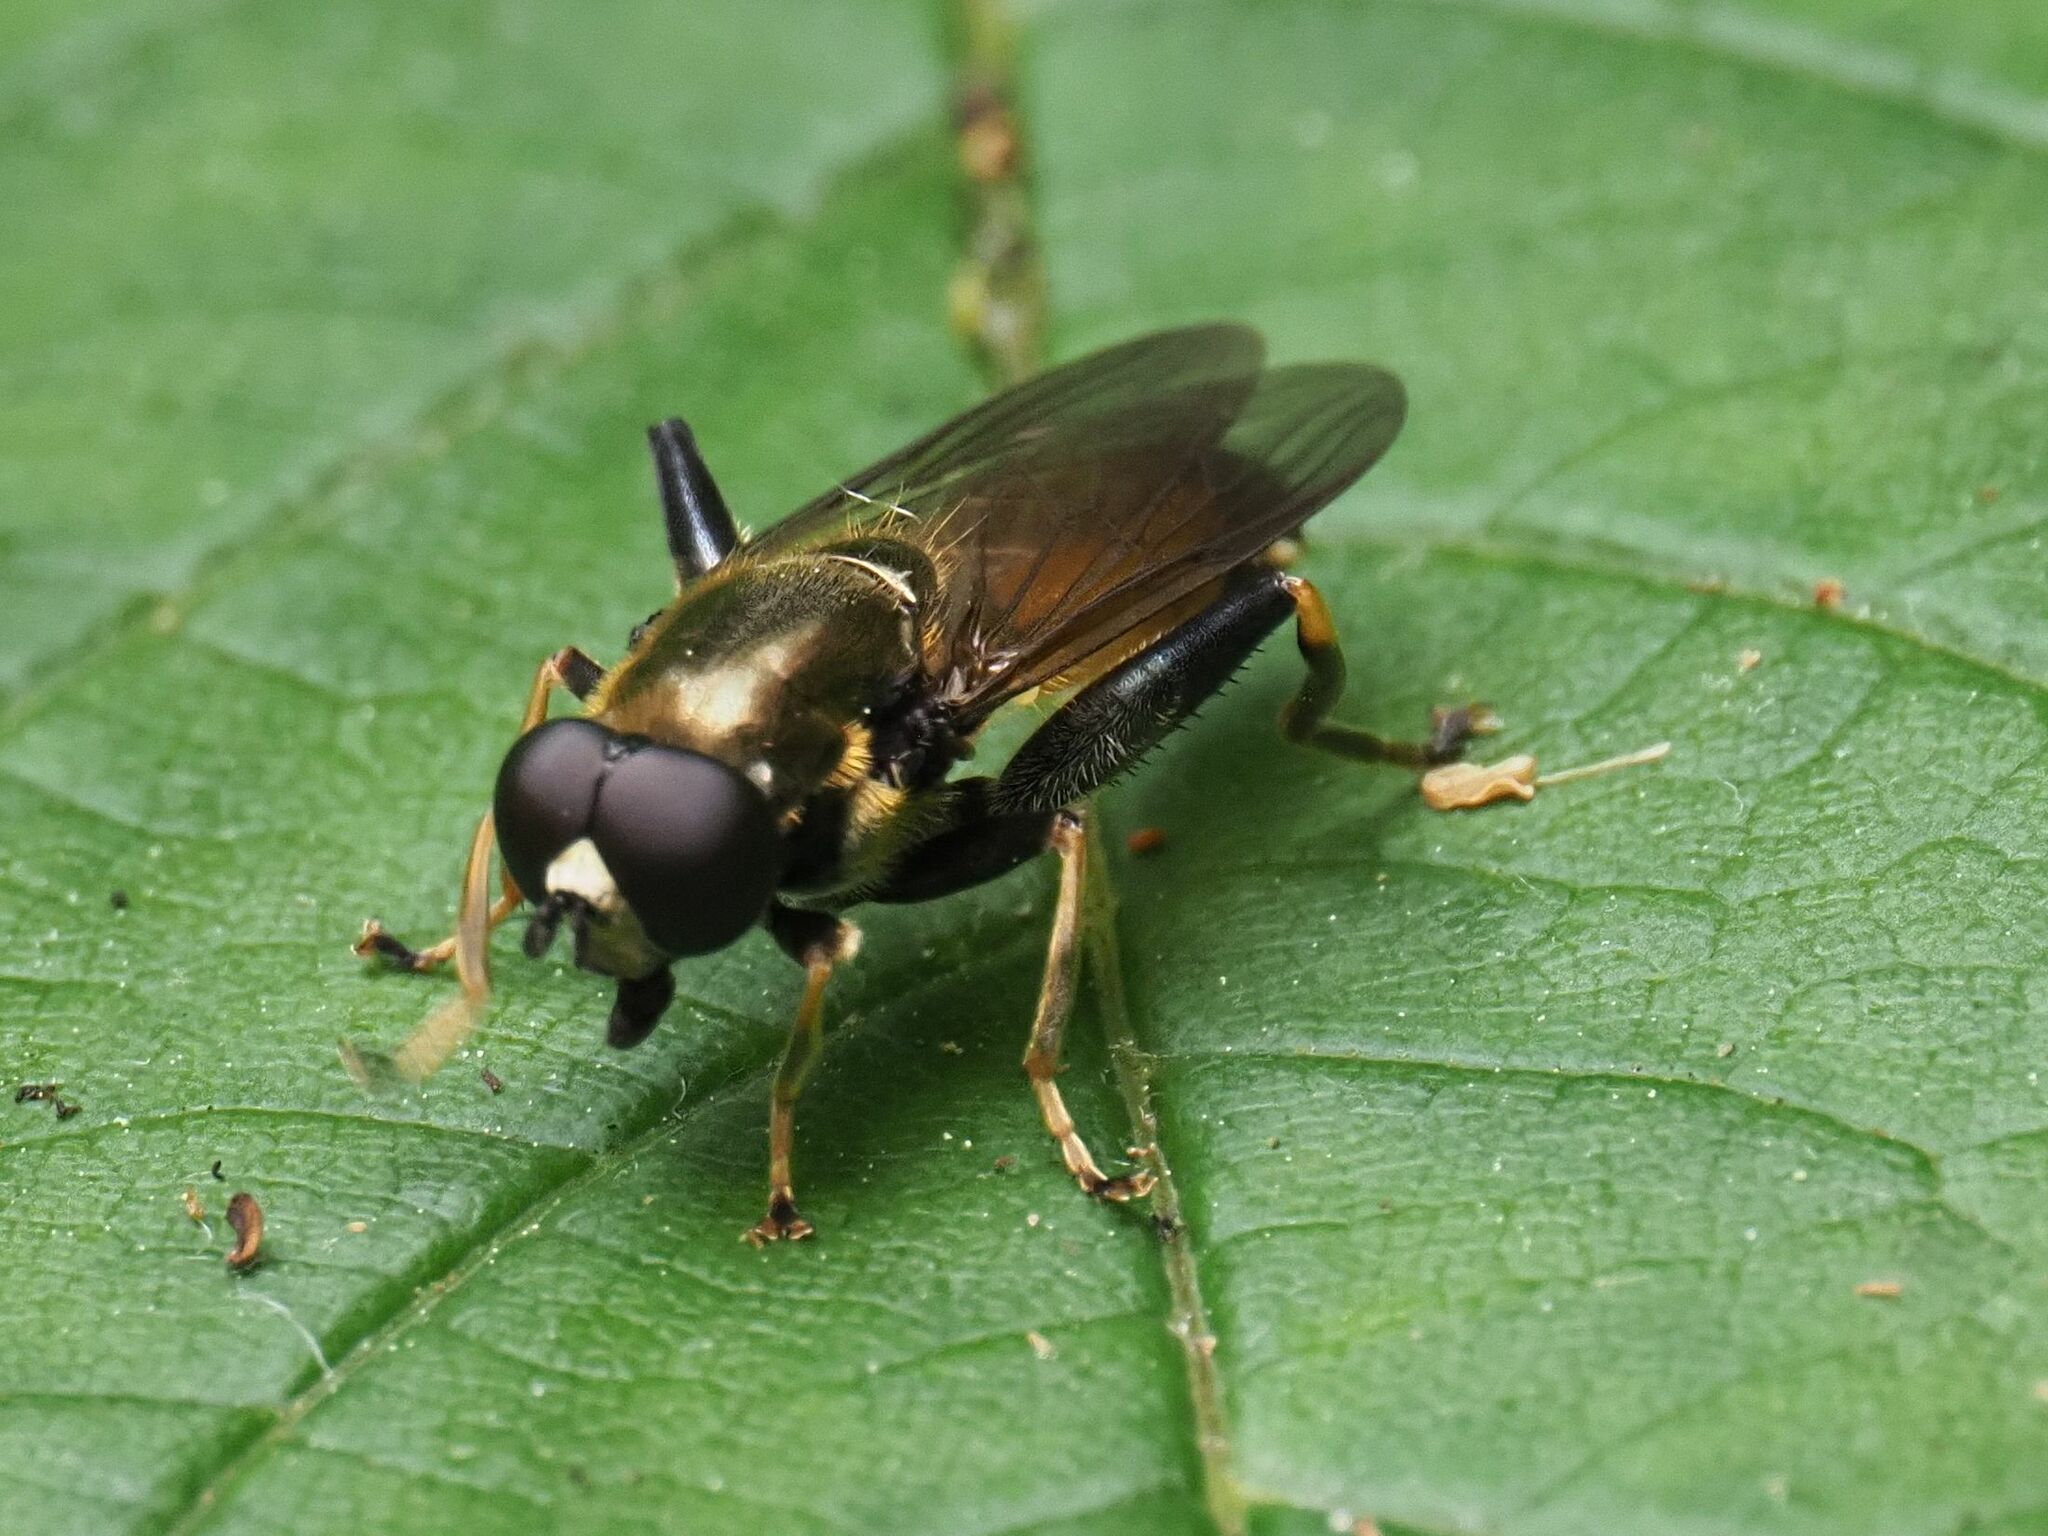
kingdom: Animalia
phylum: Arthropoda
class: Insecta
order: Diptera
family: Syrphidae
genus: Xylota
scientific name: Xylota segnis
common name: Brown-toed forest fly
